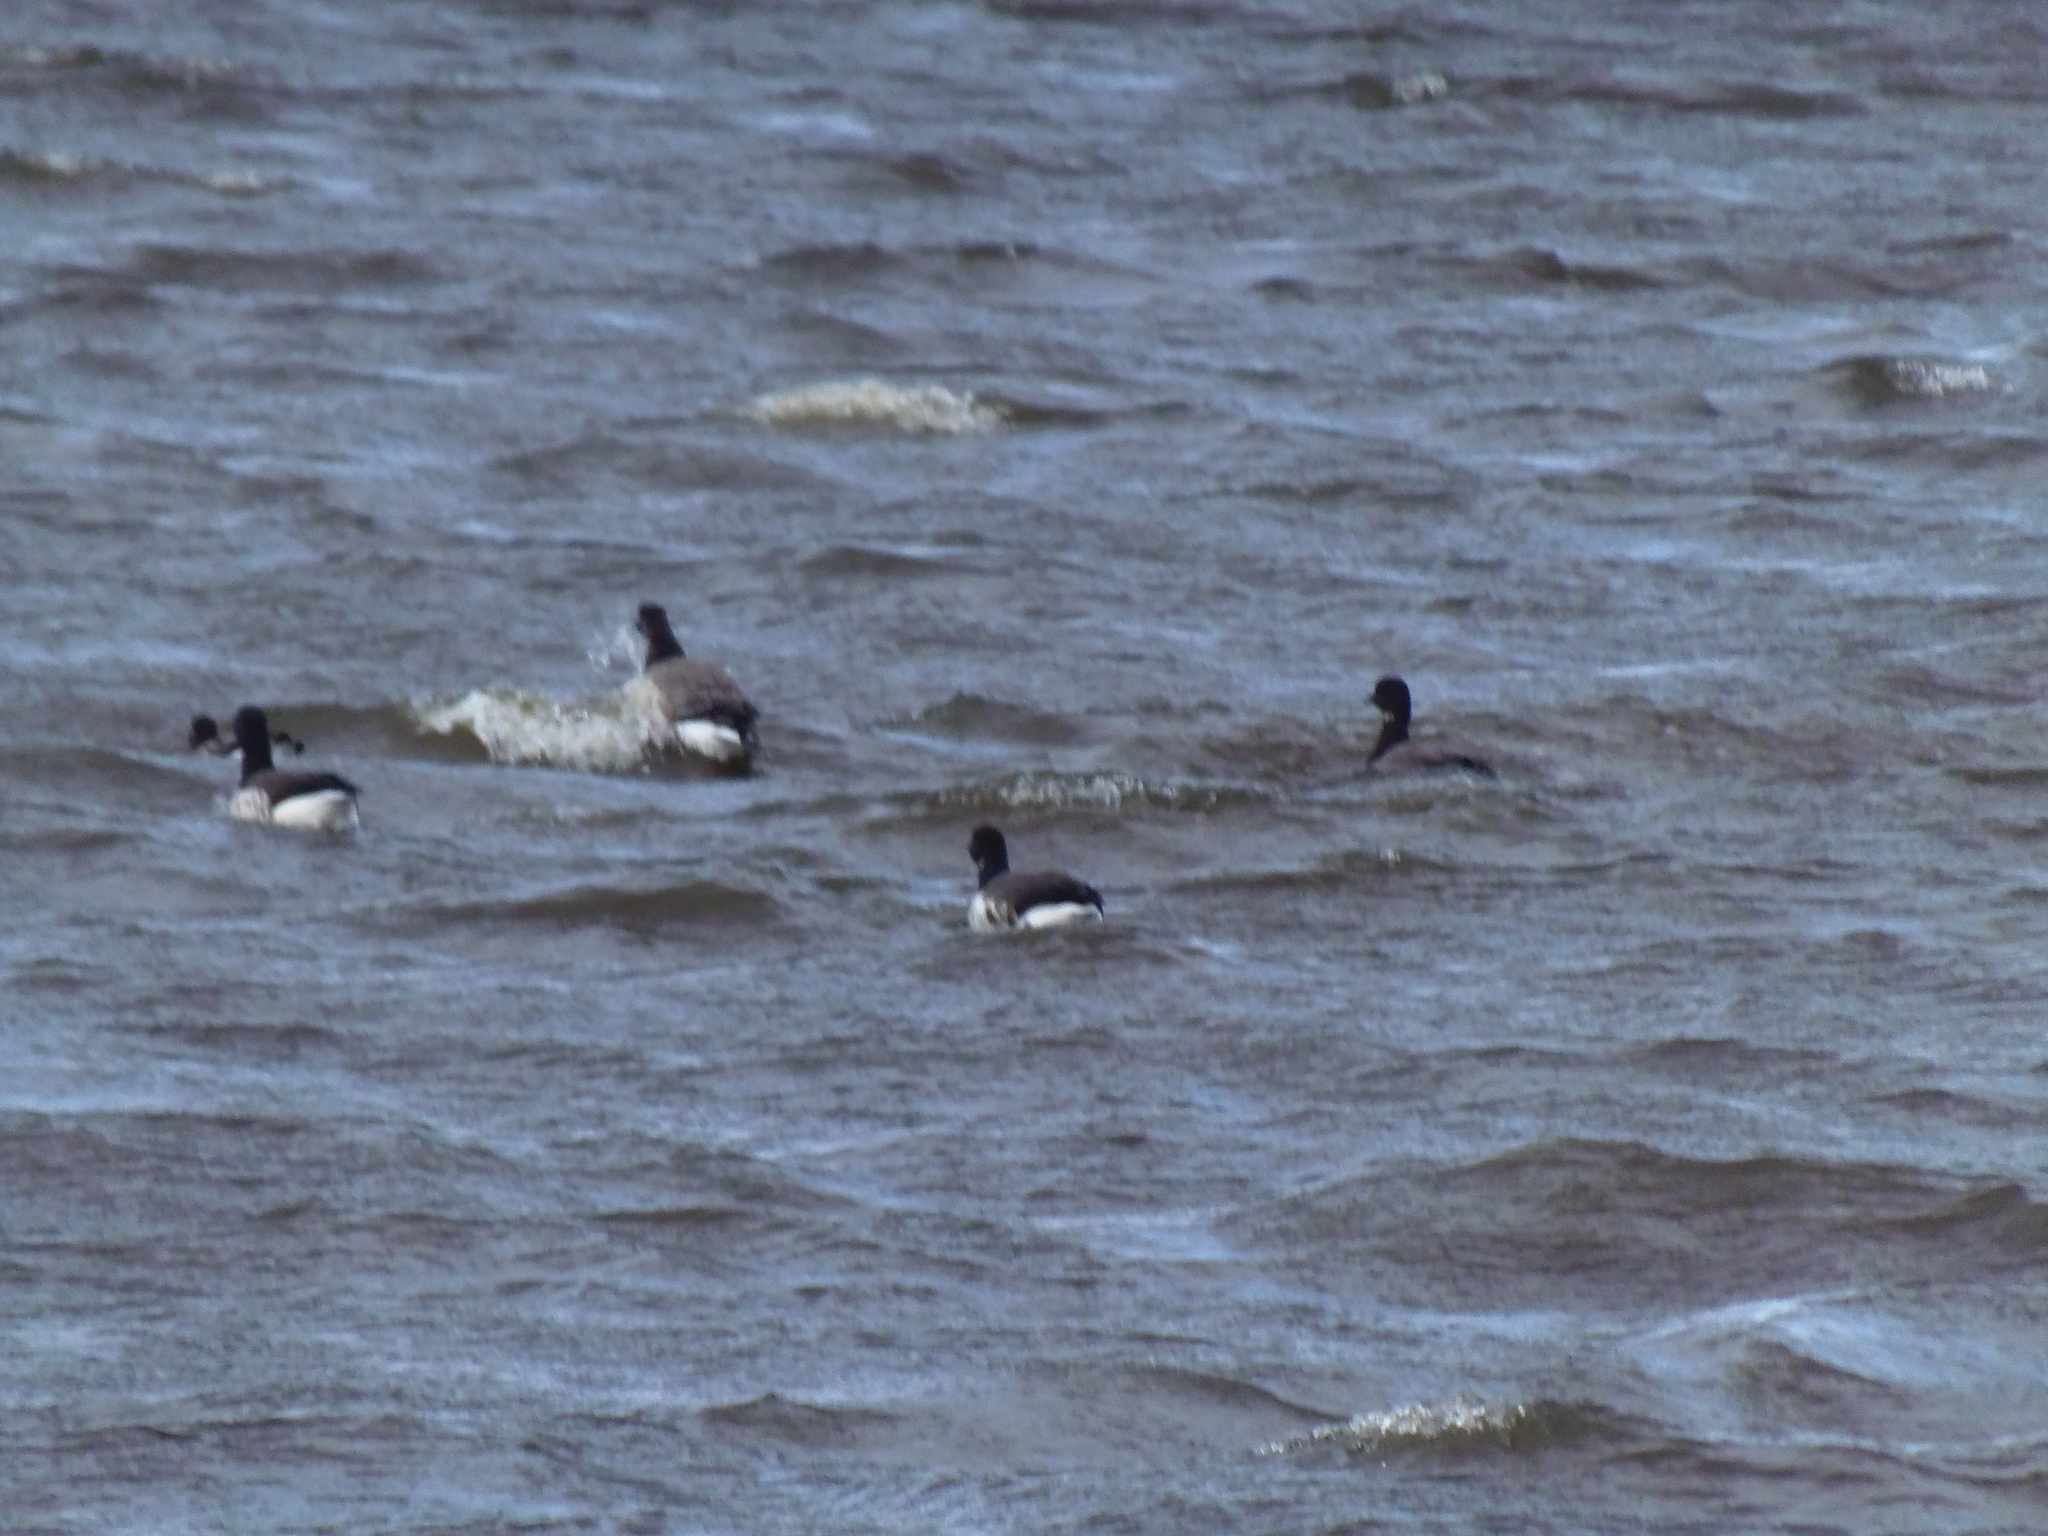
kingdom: Animalia
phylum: Chordata
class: Aves
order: Anseriformes
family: Anatidae
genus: Branta
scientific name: Branta bernicla
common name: Brant goose
